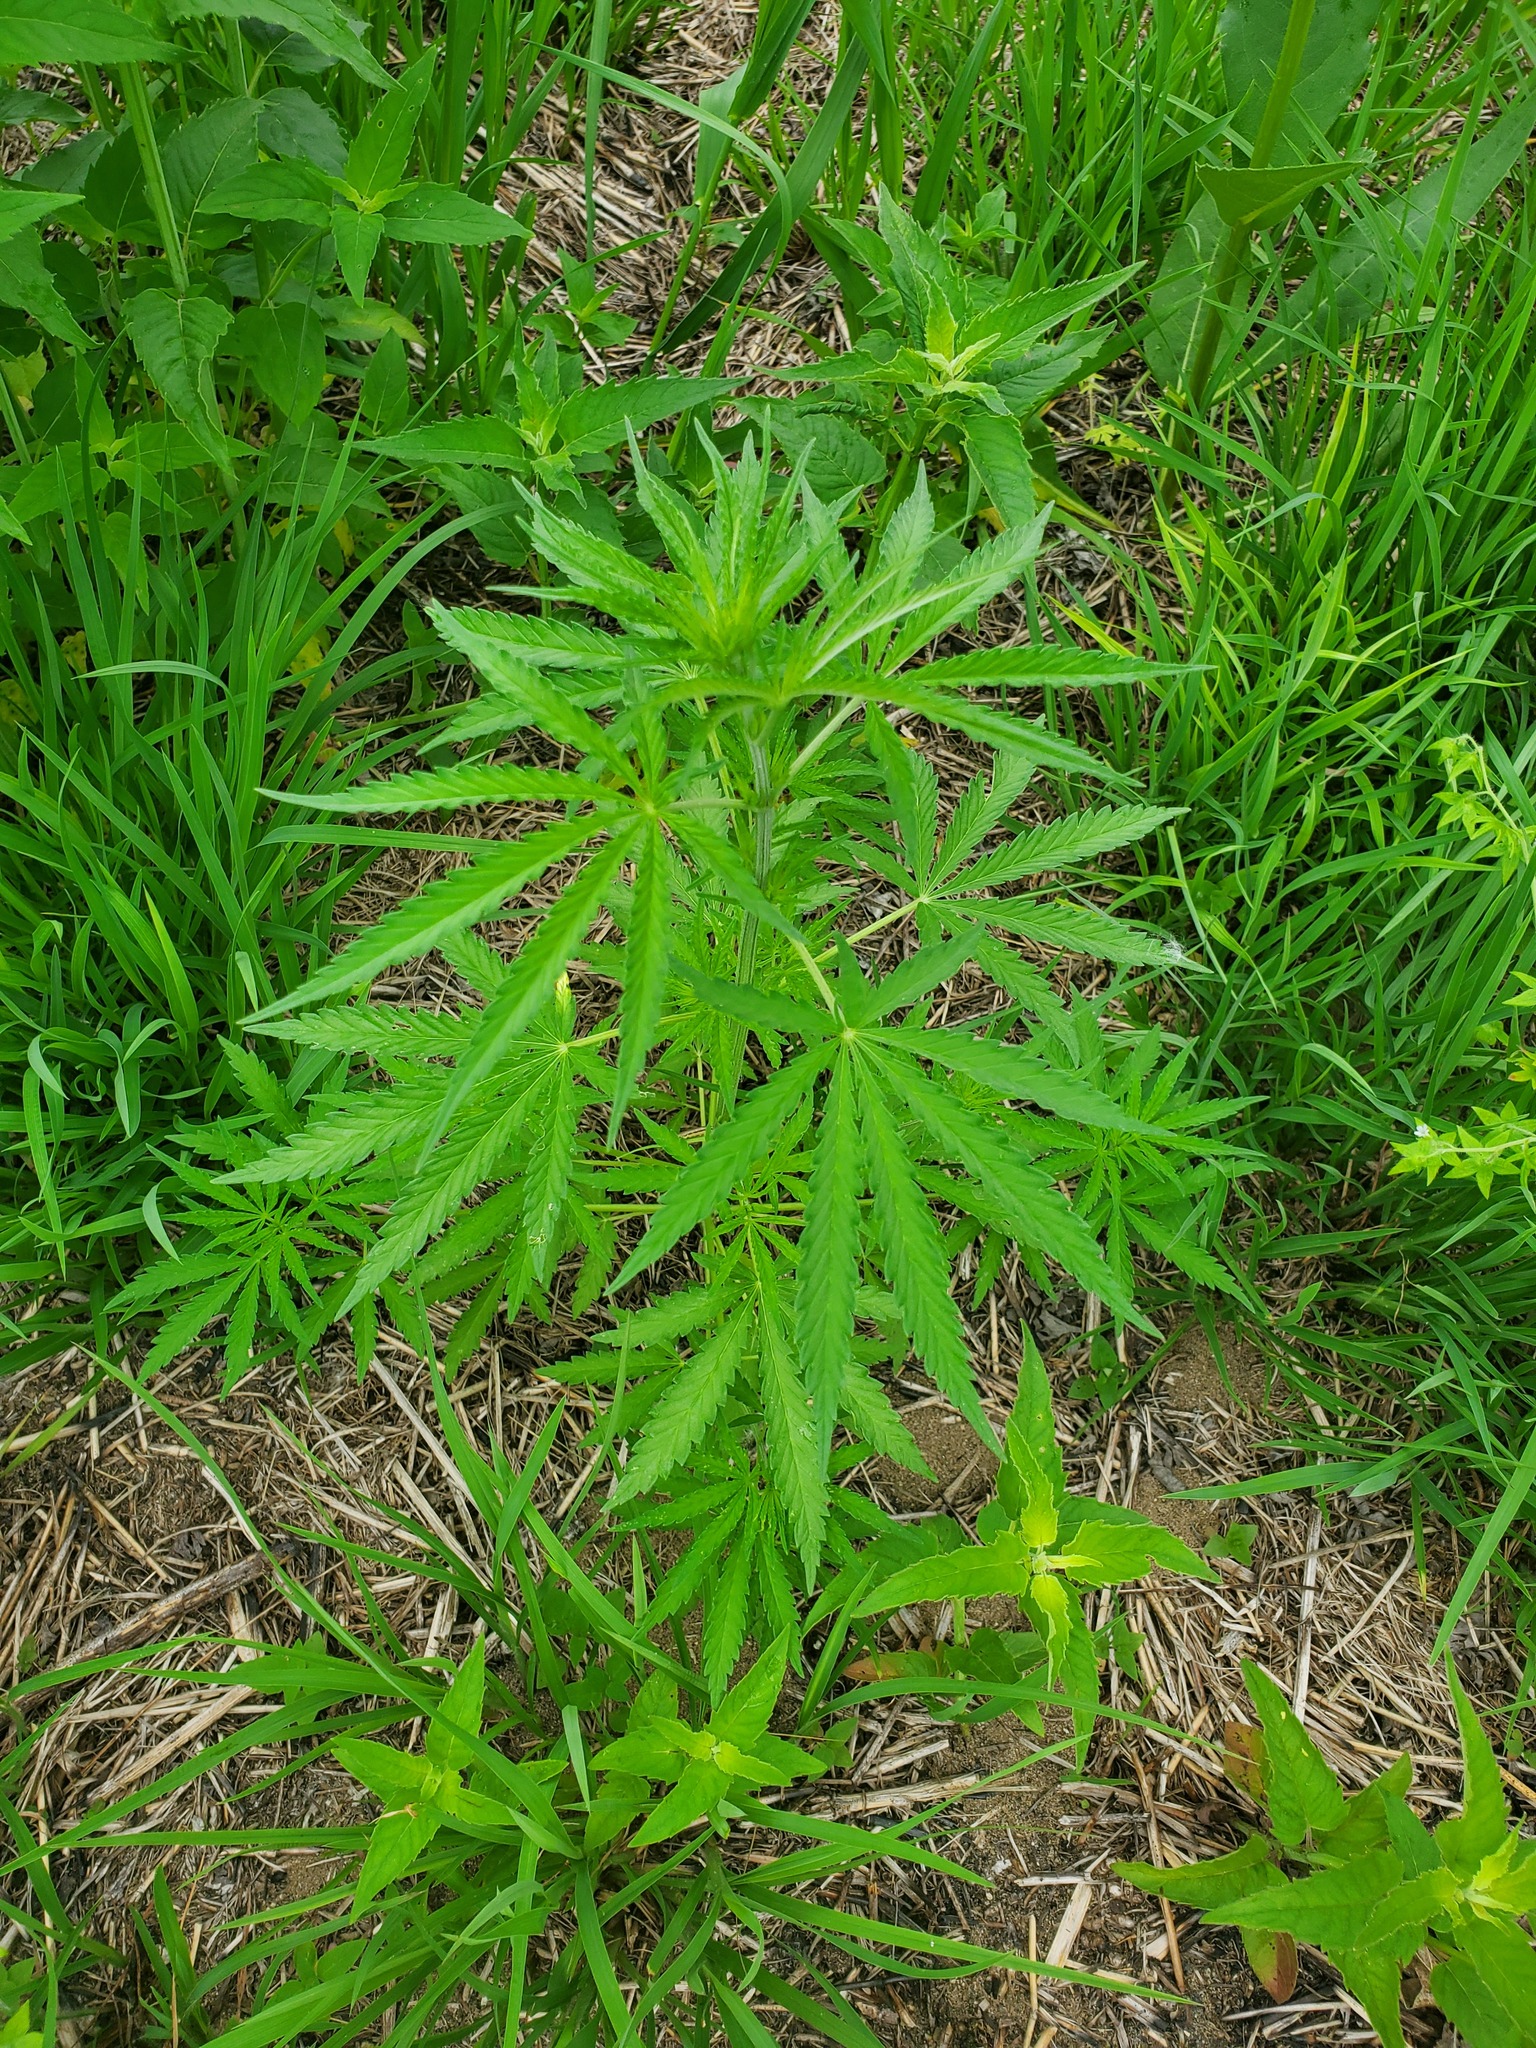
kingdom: Plantae
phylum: Tracheophyta
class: Magnoliopsida
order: Rosales
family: Cannabaceae
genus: Cannabis
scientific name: Cannabis sativa
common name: Hemp
